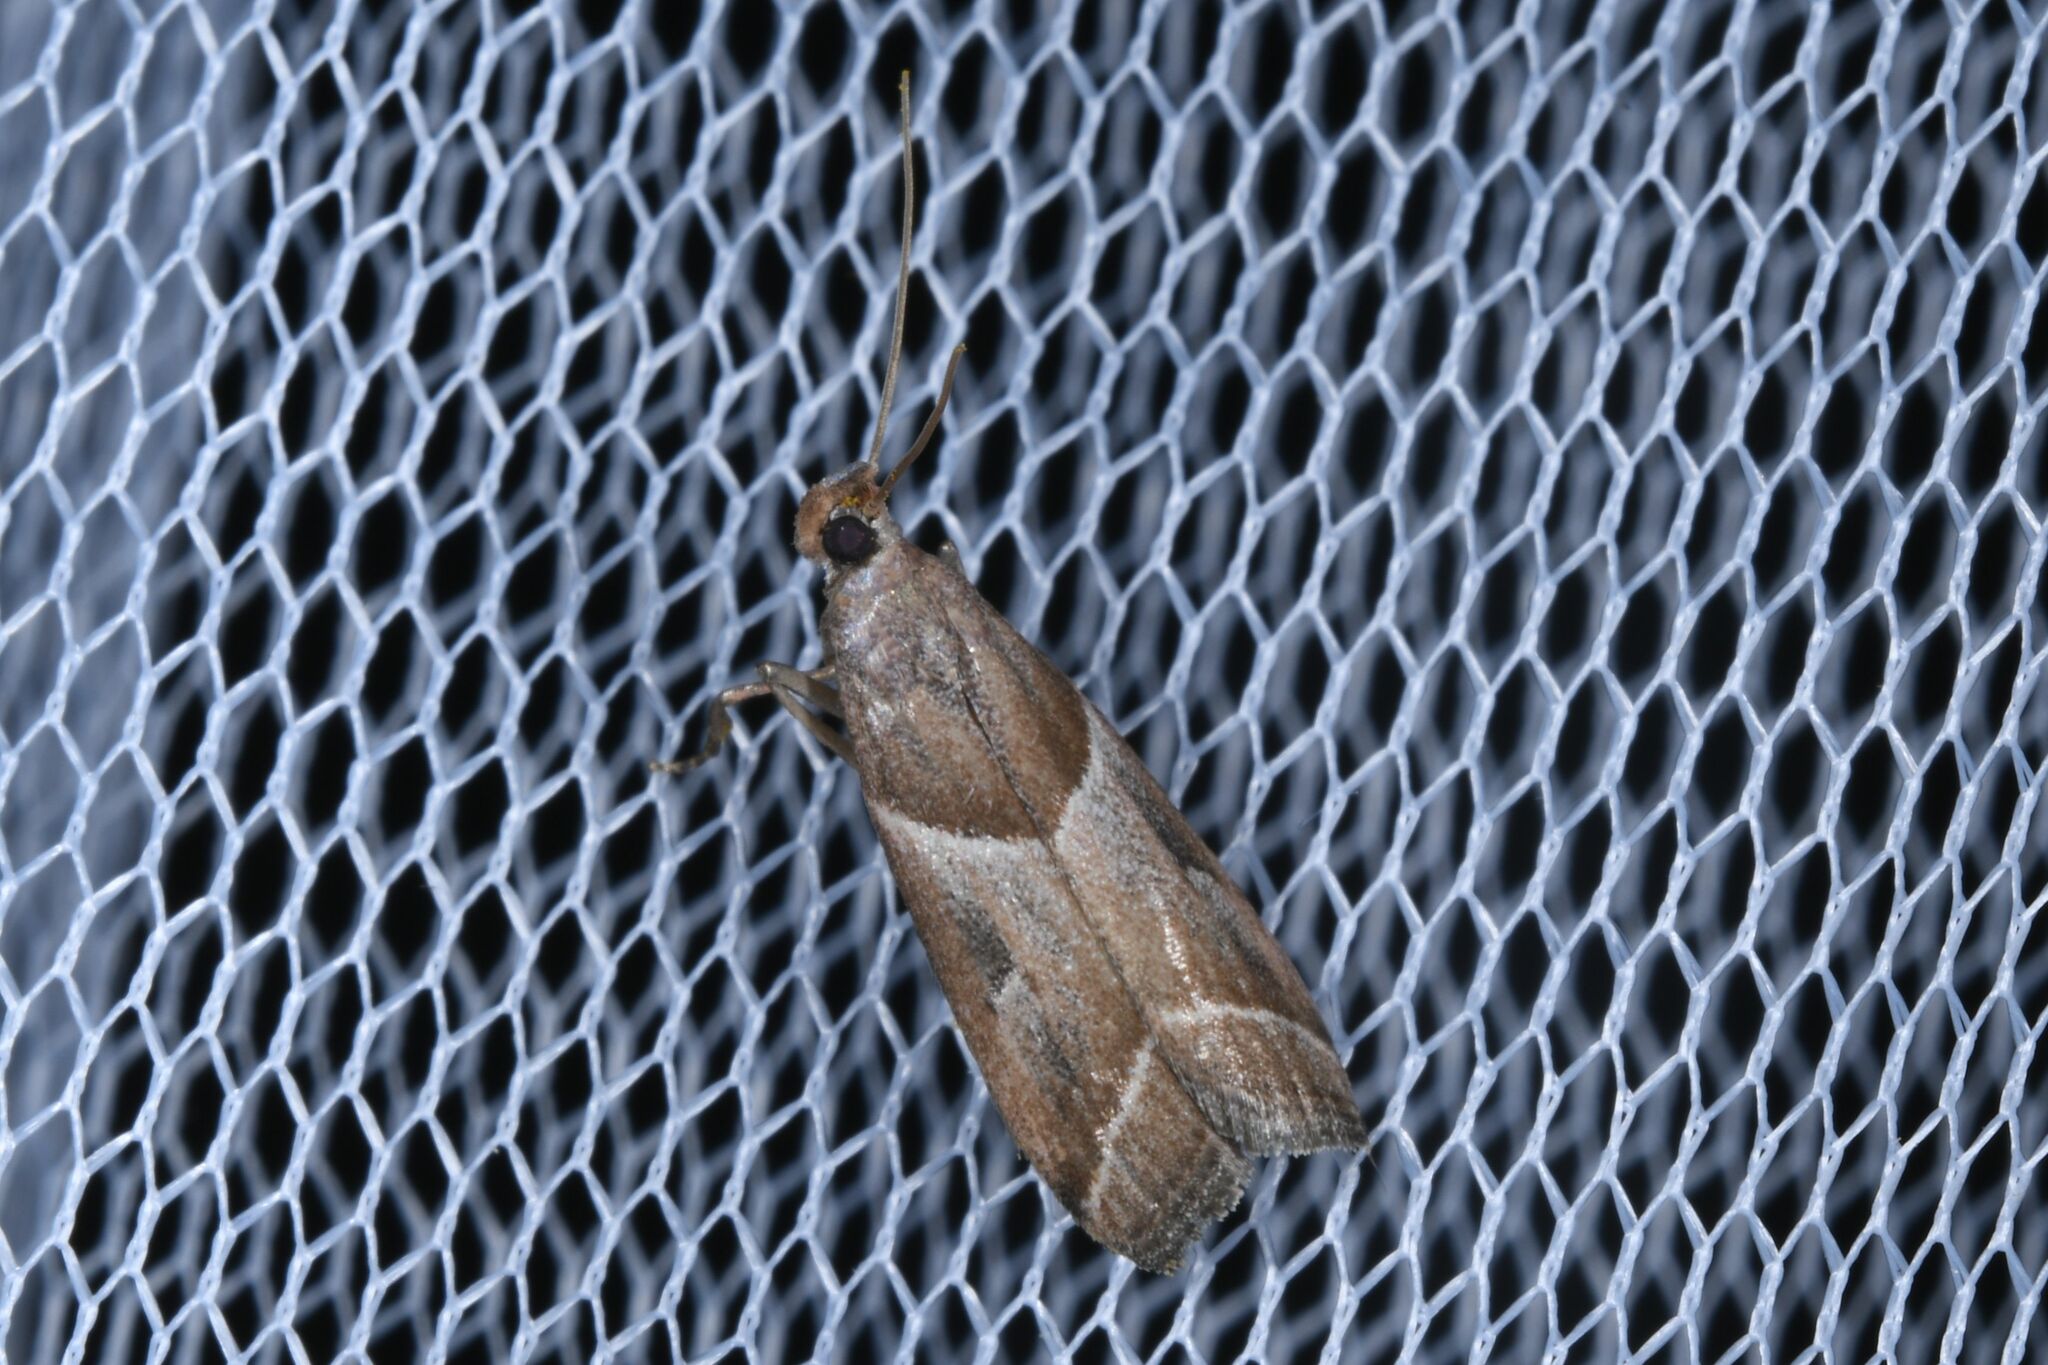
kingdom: Animalia
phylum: Arthropoda
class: Insecta
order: Lepidoptera
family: Pyralidae
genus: Nyctegretis
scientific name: Nyctegretis lineana
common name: Agate knot-horn
